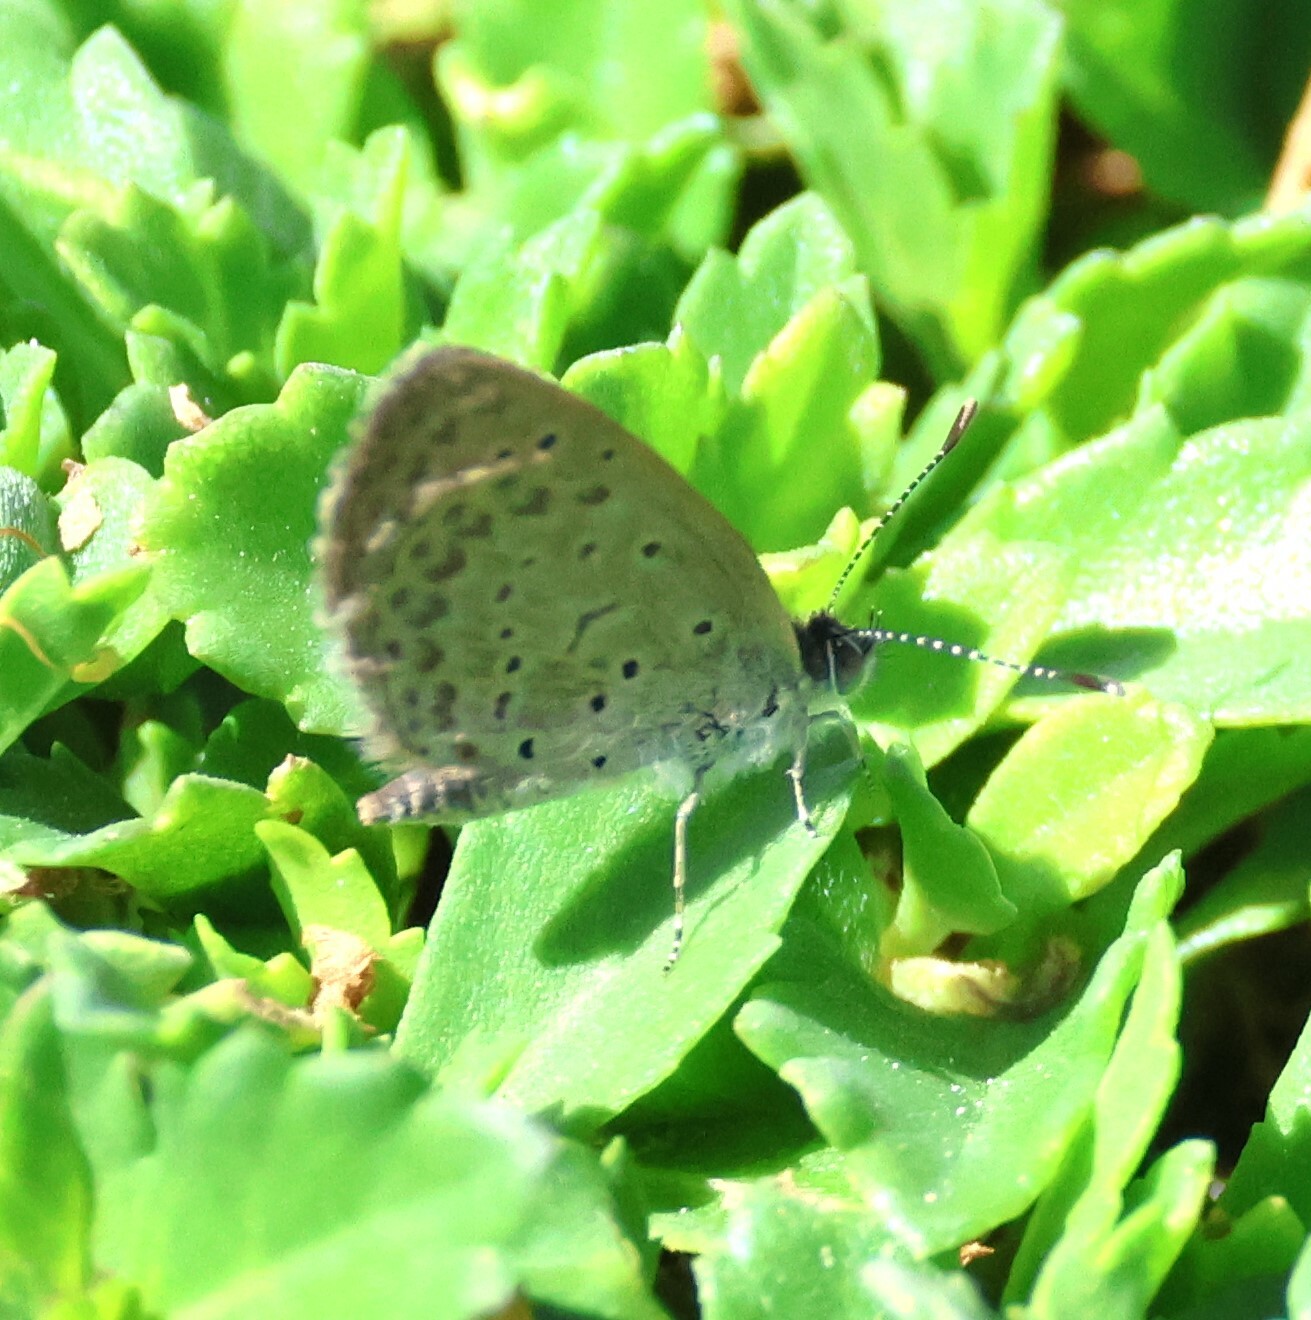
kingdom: Animalia
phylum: Arthropoda
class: Insecta
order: Lepidoptera
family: Lycaenidae
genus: Zizeeria
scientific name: Zizeeria knysna
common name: African grass blue
